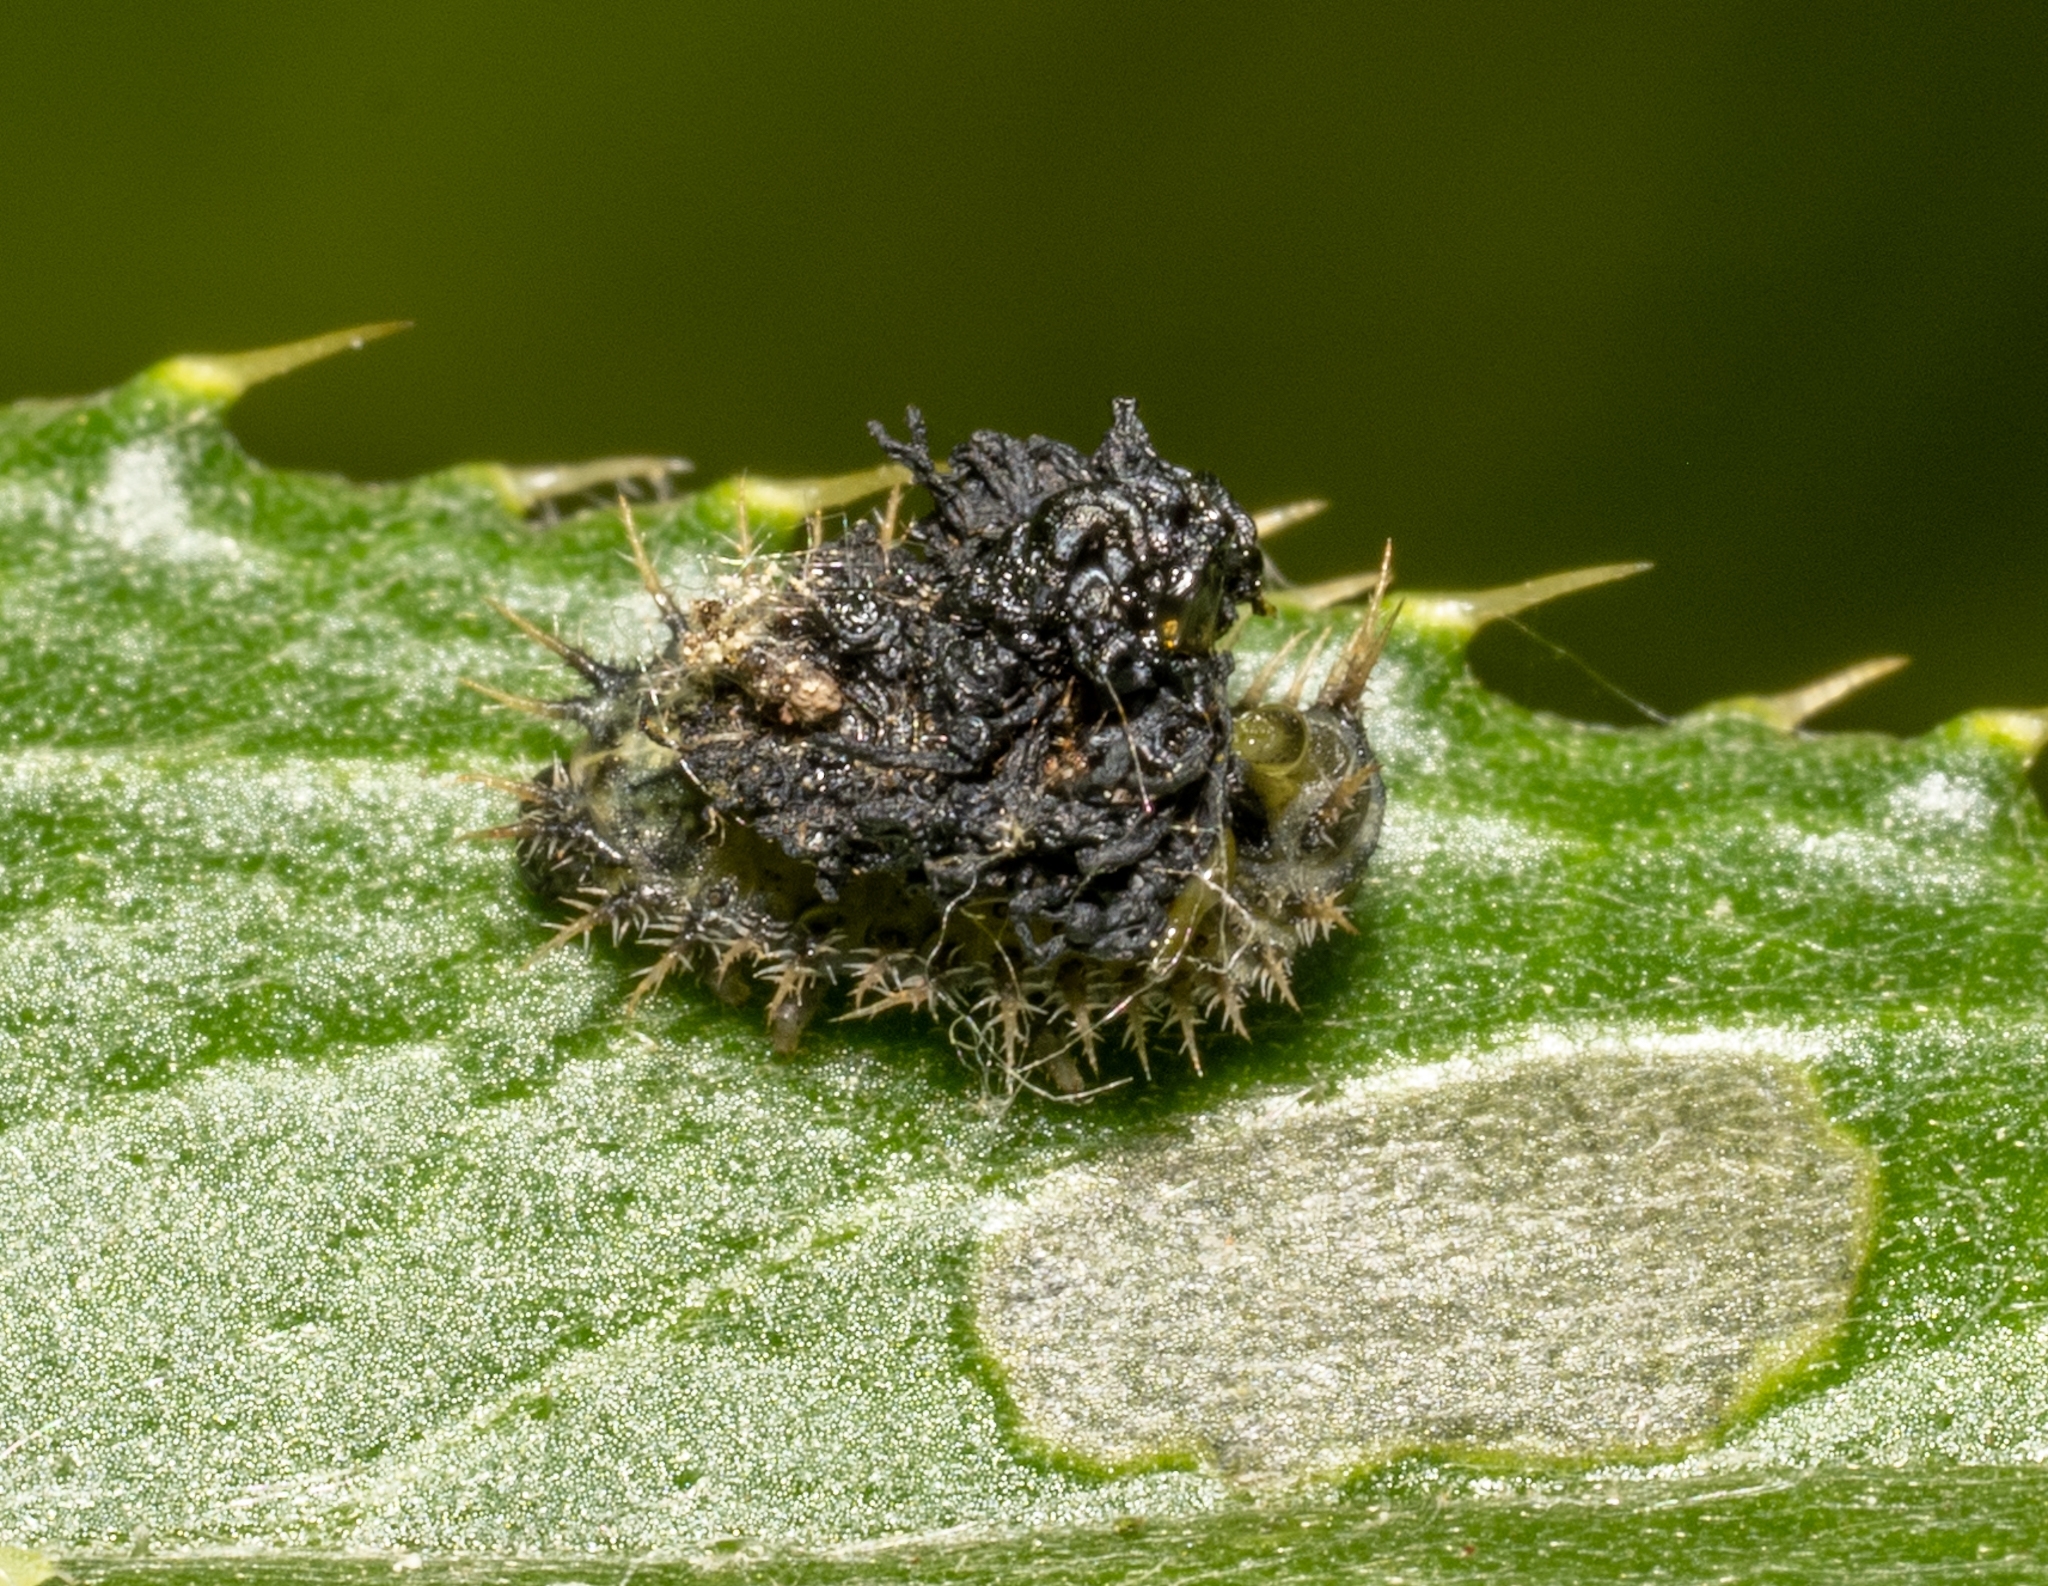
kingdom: Animalia
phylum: Arthropoda
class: Insecta
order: Coleoptera
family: Chrysomelidae
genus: Cassida
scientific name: Cassida rubiginosa
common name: Thistle tortoise beetle
